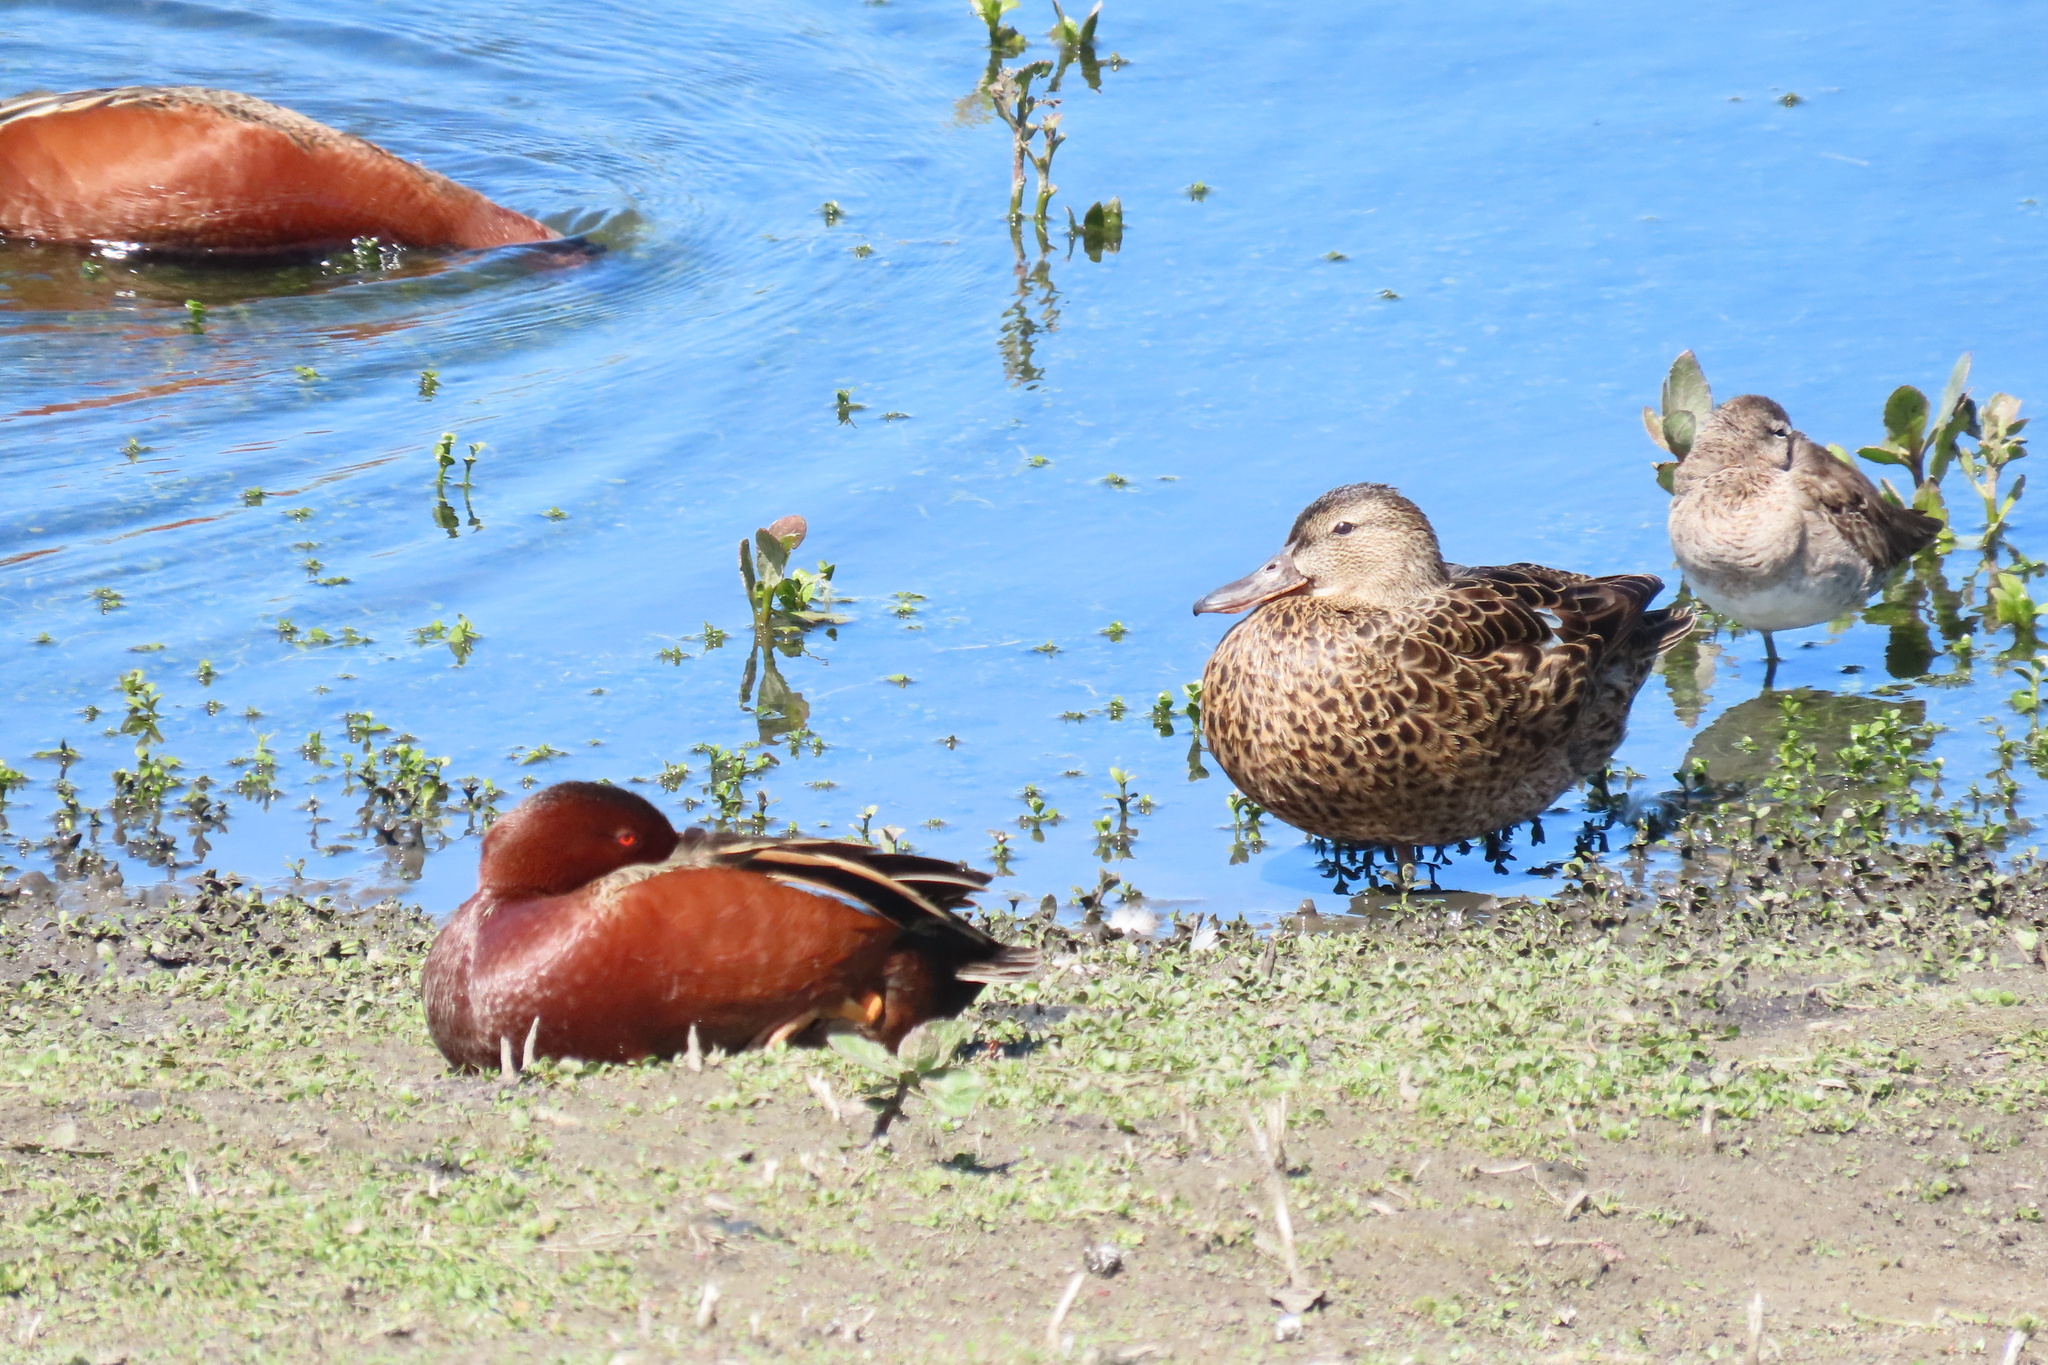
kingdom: Animalia
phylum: Chordata
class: Aves
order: Anseriformes
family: Anatidae
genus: Spatula
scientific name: Spatula cyanoptera
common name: Cinnamon teal
